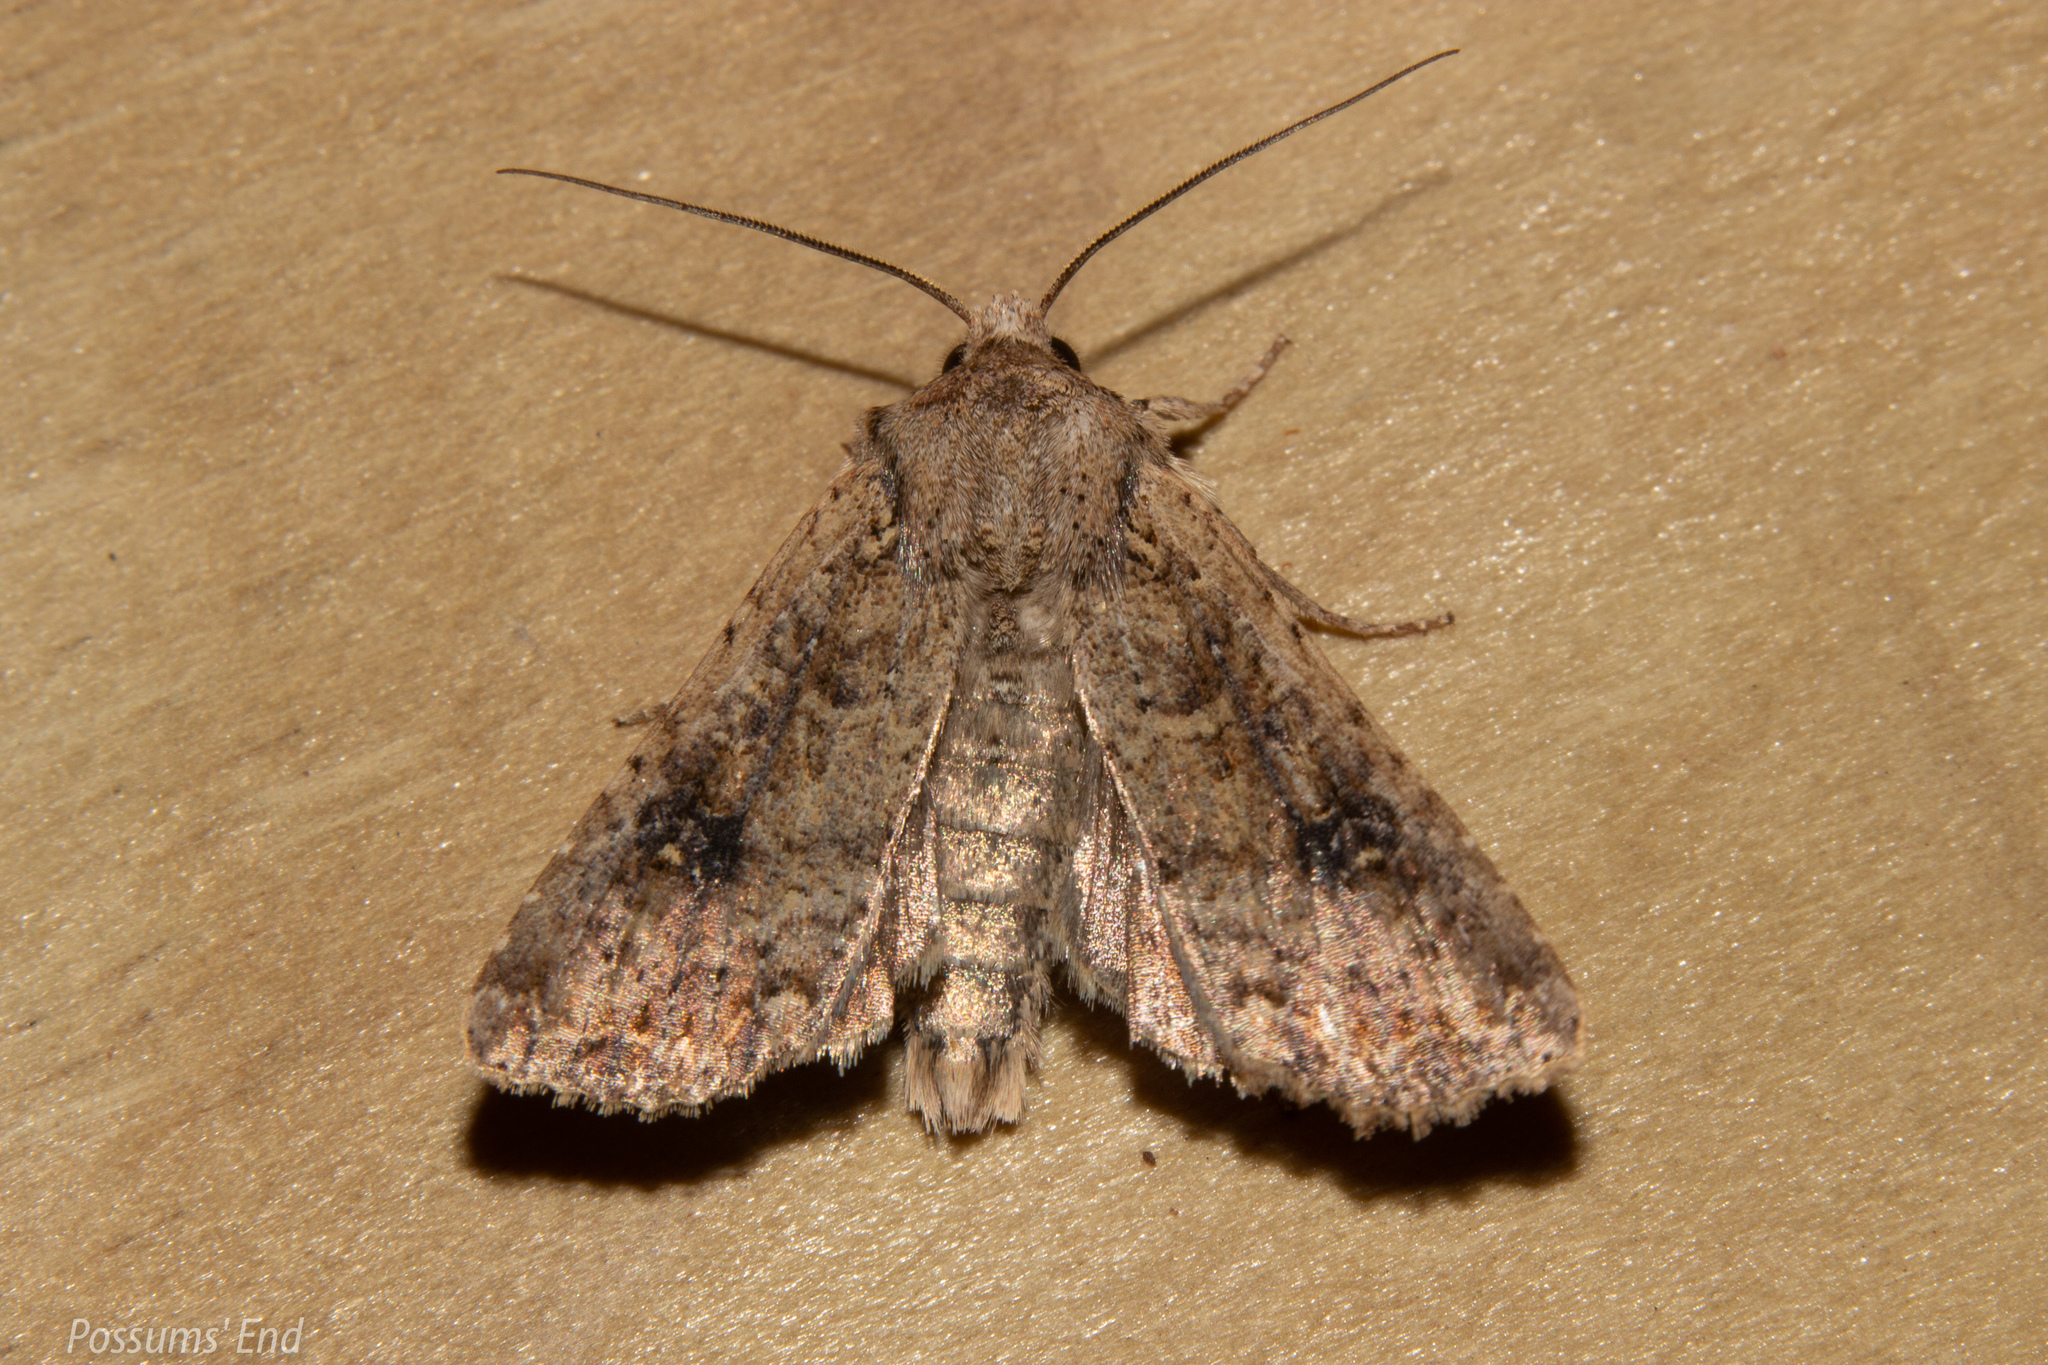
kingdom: Animalia
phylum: Arthropoda
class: Insecta
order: Lepidoptera
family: Noctuidae
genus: Ichneutica
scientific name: Ichneutica morosa
